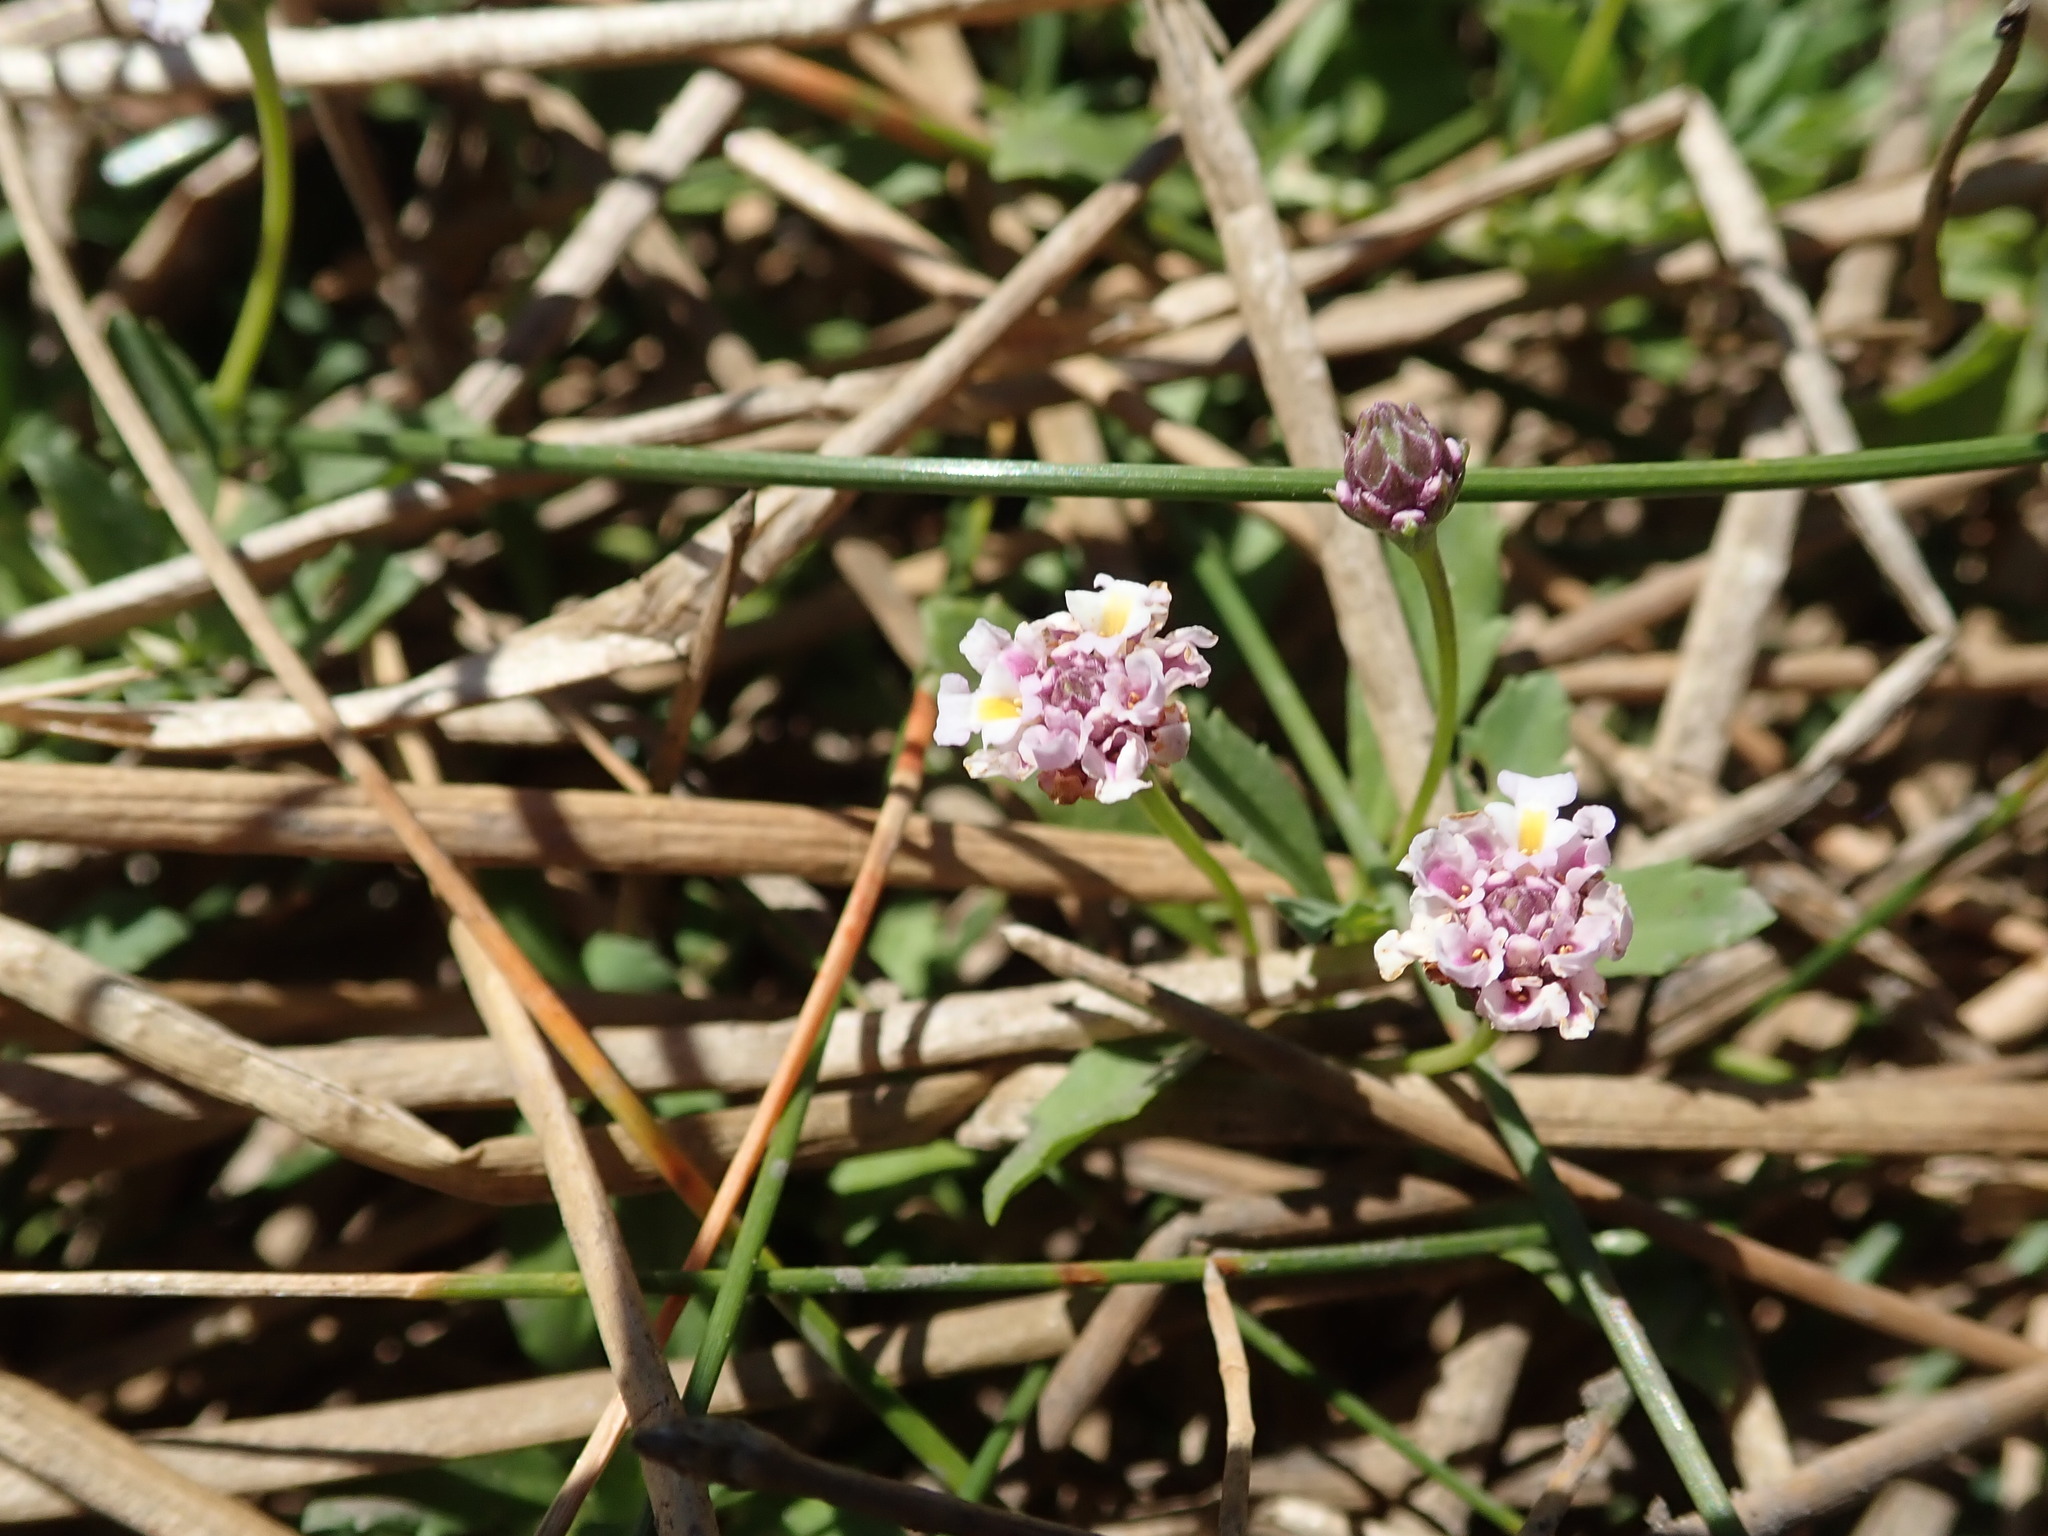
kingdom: Plantae
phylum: Tracheophyta
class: Magnoliopsida
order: Lamiales
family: Verbenaceae
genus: Phyla
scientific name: Phyla nodiflora
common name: Frogfruit
